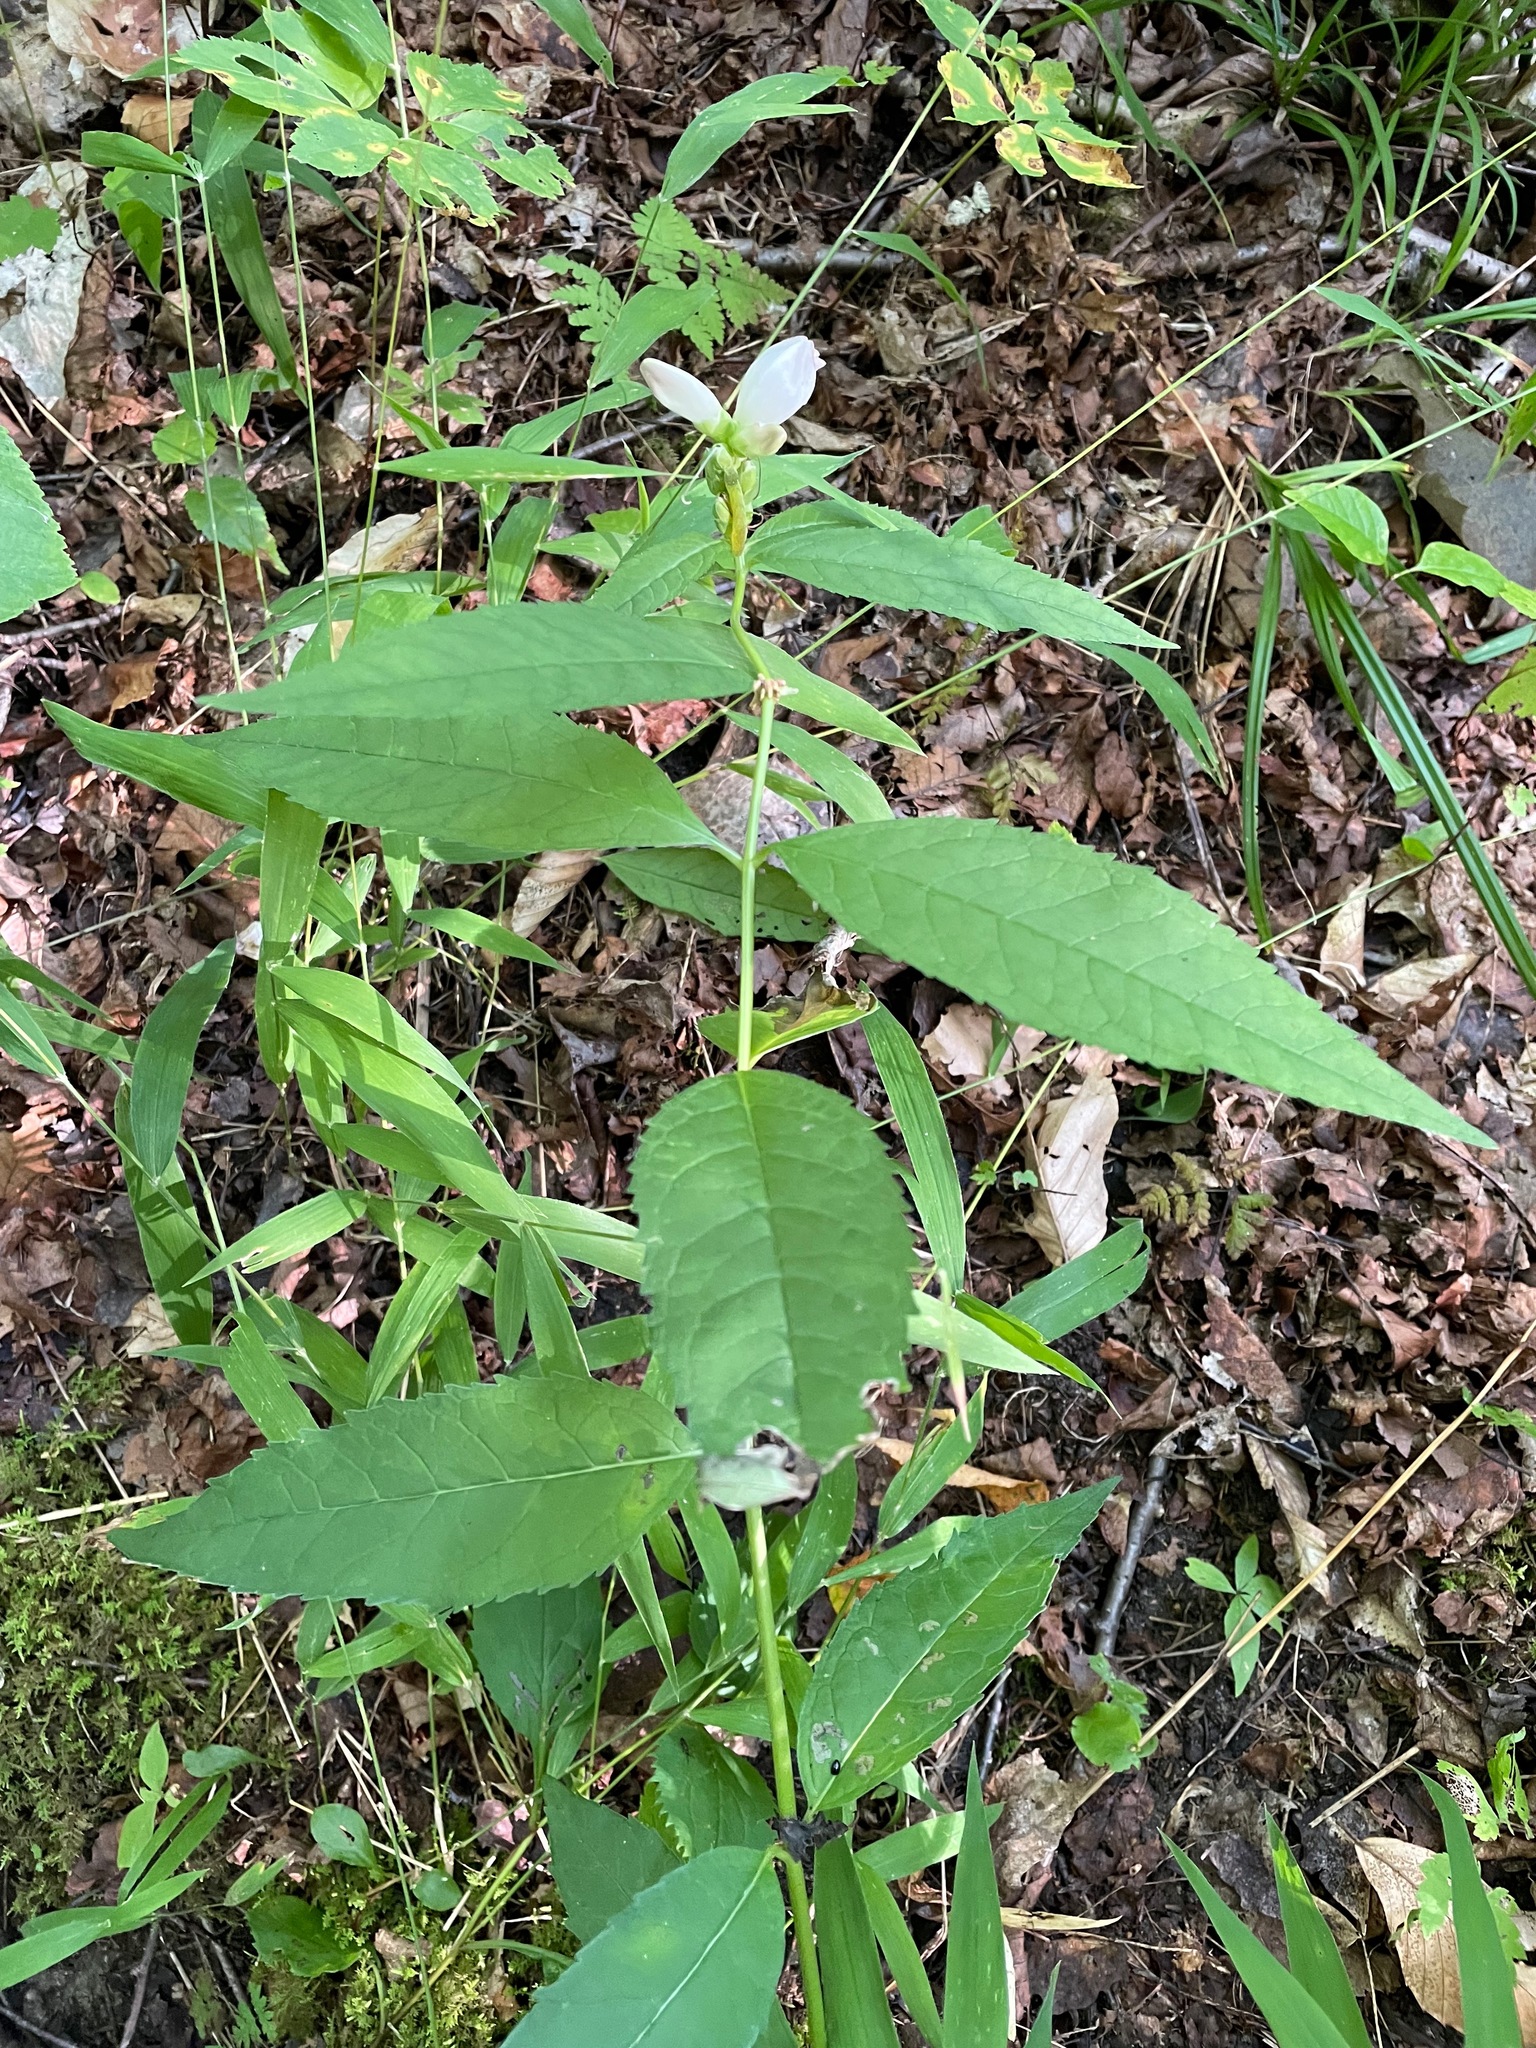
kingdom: Plantae
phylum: Tracheophyta
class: Magnoliopsida
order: Lamiales
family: Plantaginaceae
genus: Chelone
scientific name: Chelone glabra
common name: Snakehead
